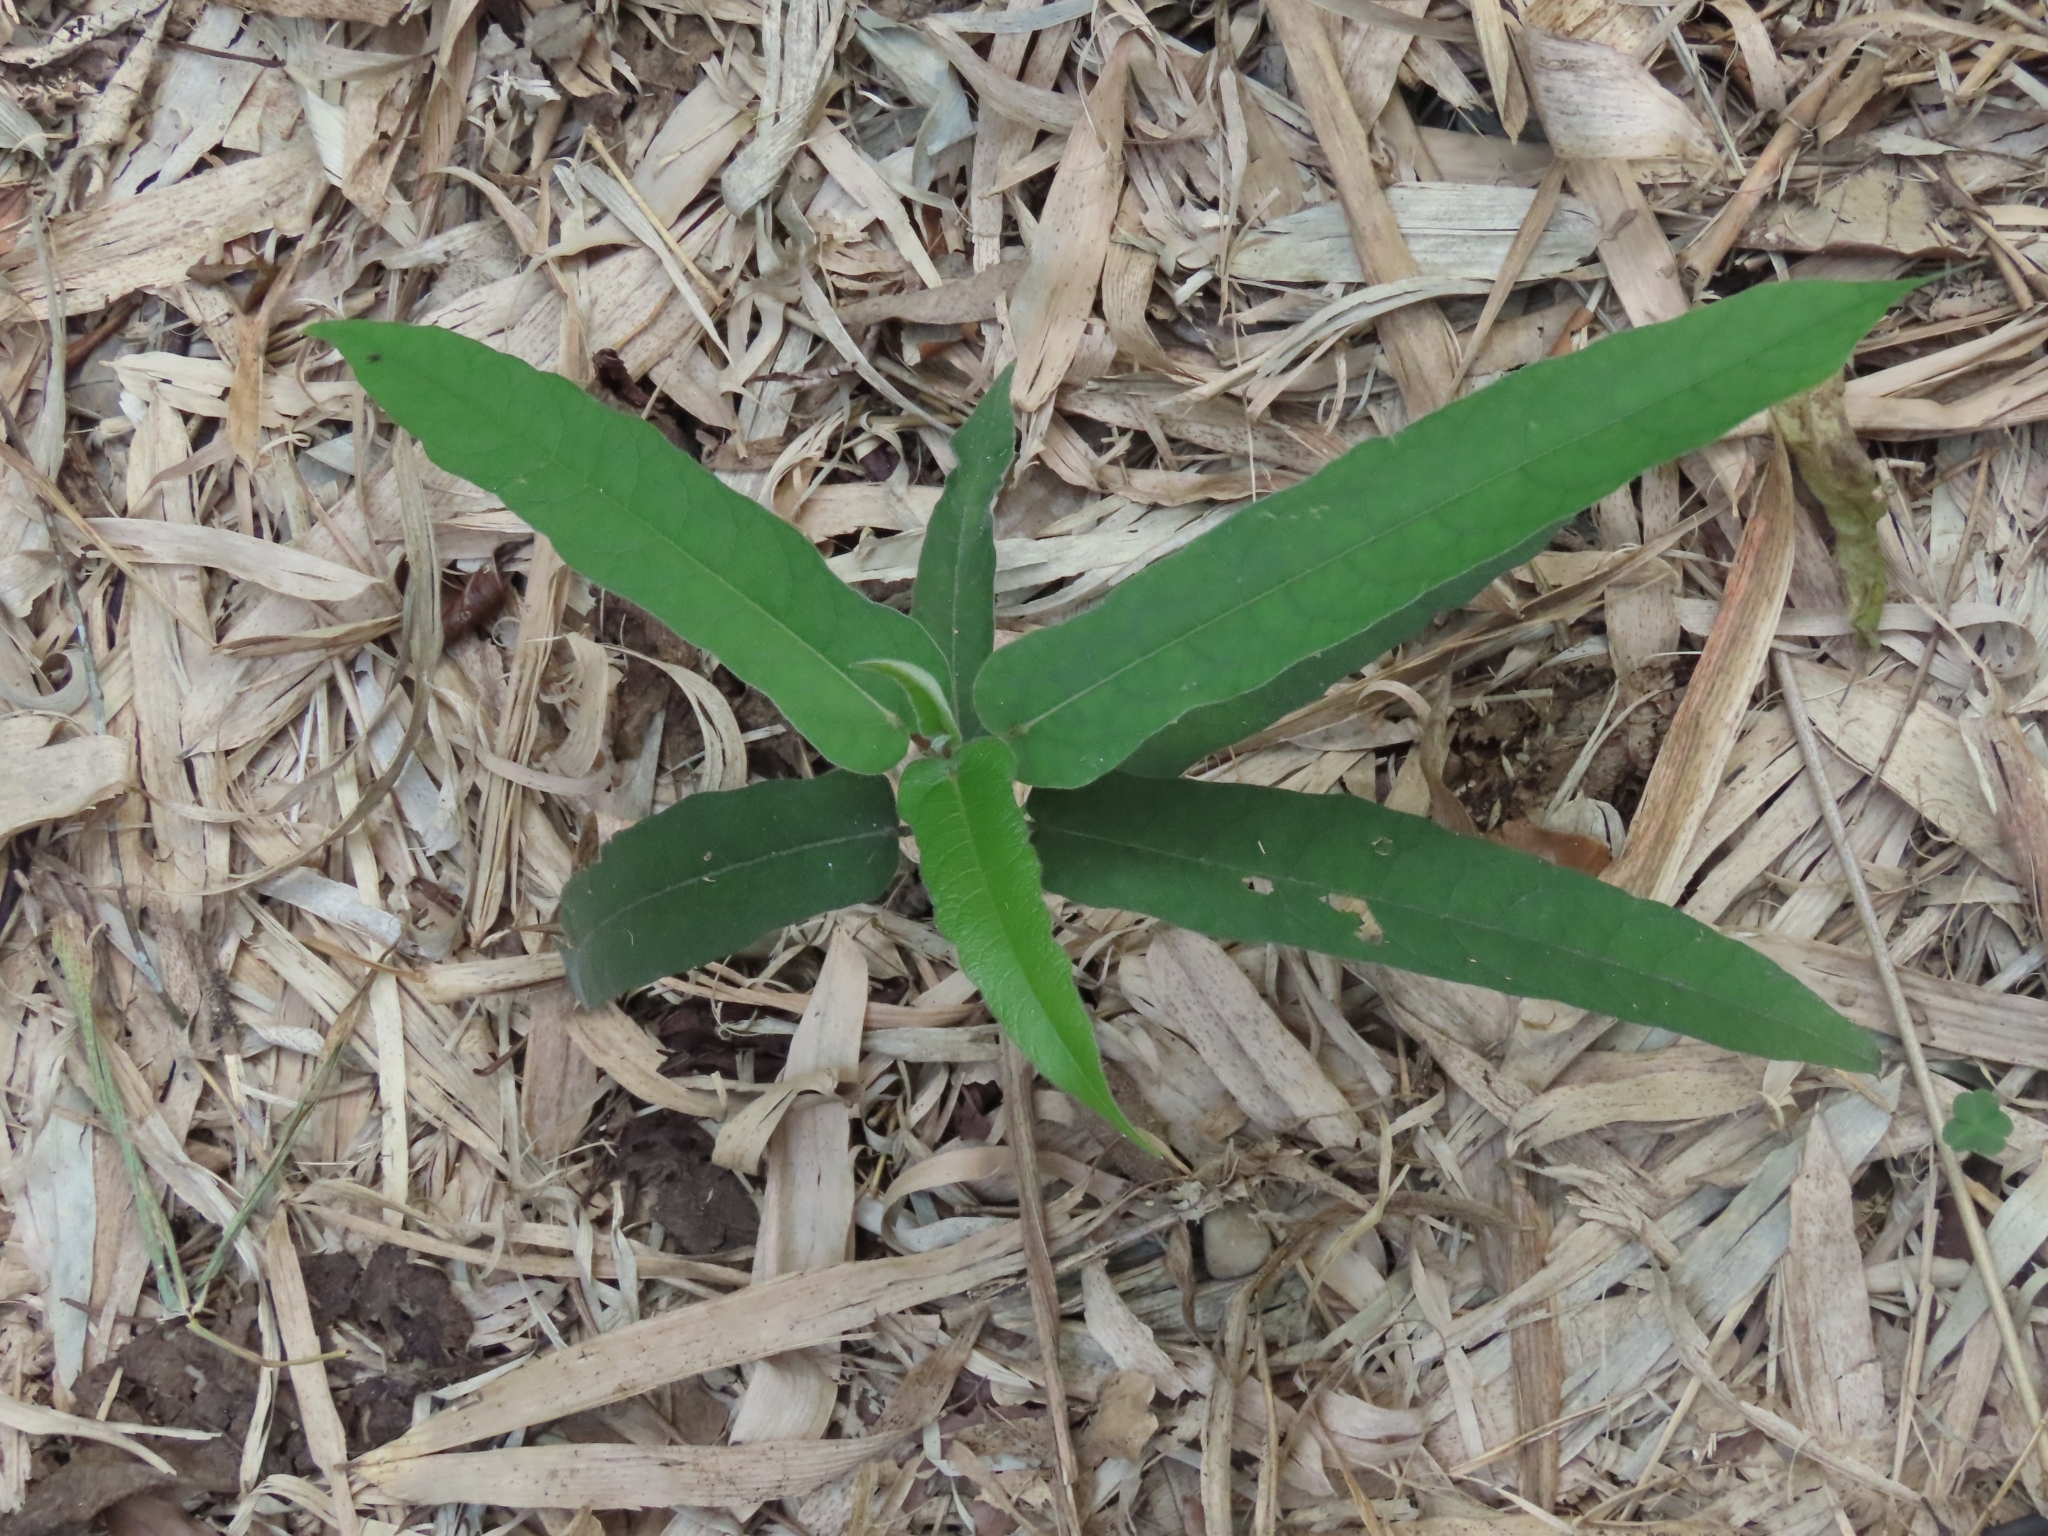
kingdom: Plantae
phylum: Tracheophyta
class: Magnoliopsida
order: Rosales
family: Moraceae
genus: Ficus
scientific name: Ficus erecta
